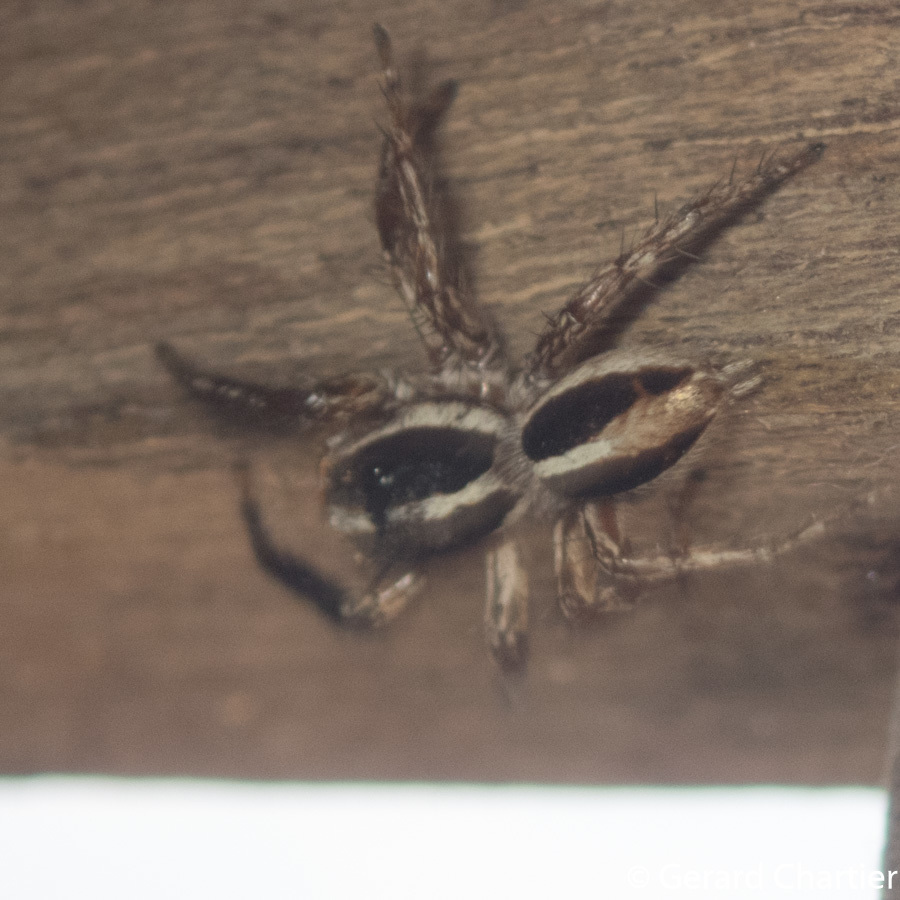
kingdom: Animalia
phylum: Arthropoda
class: Arachnida
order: Araneae
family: Salticidae
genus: Plexippus
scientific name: Plexippus paykulli
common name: Pantropical jumper
